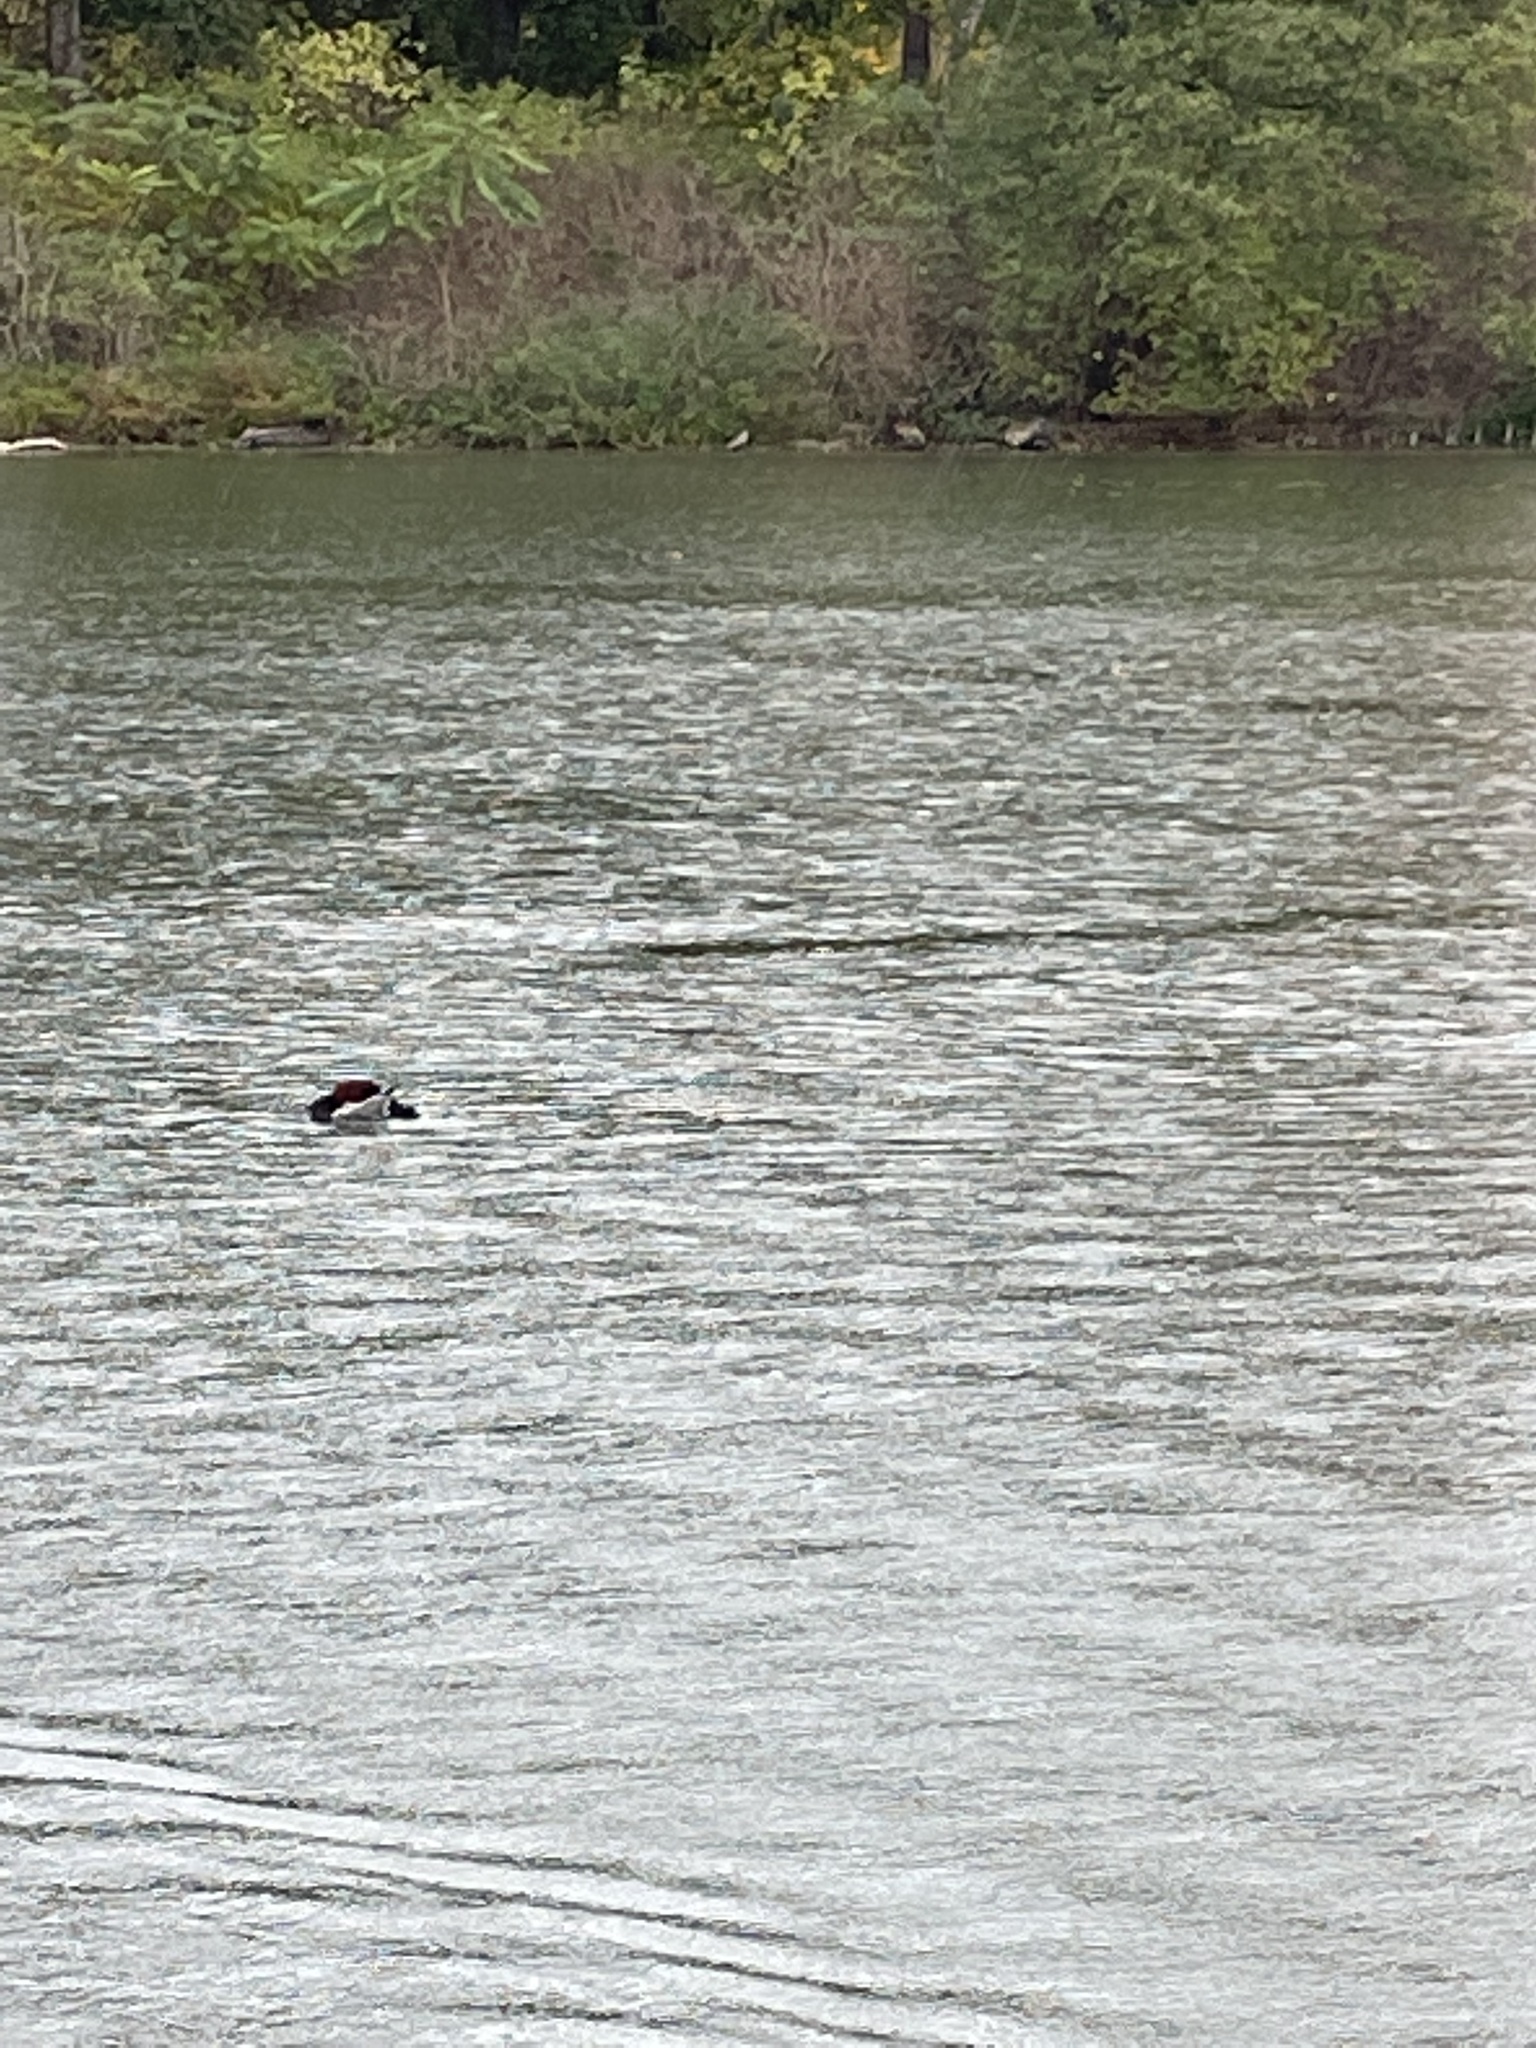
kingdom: Animalia
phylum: Chordata
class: Aves
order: Anseriformes
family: Anatidae
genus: Aythya
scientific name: Aythya ferina
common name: Common pochard
